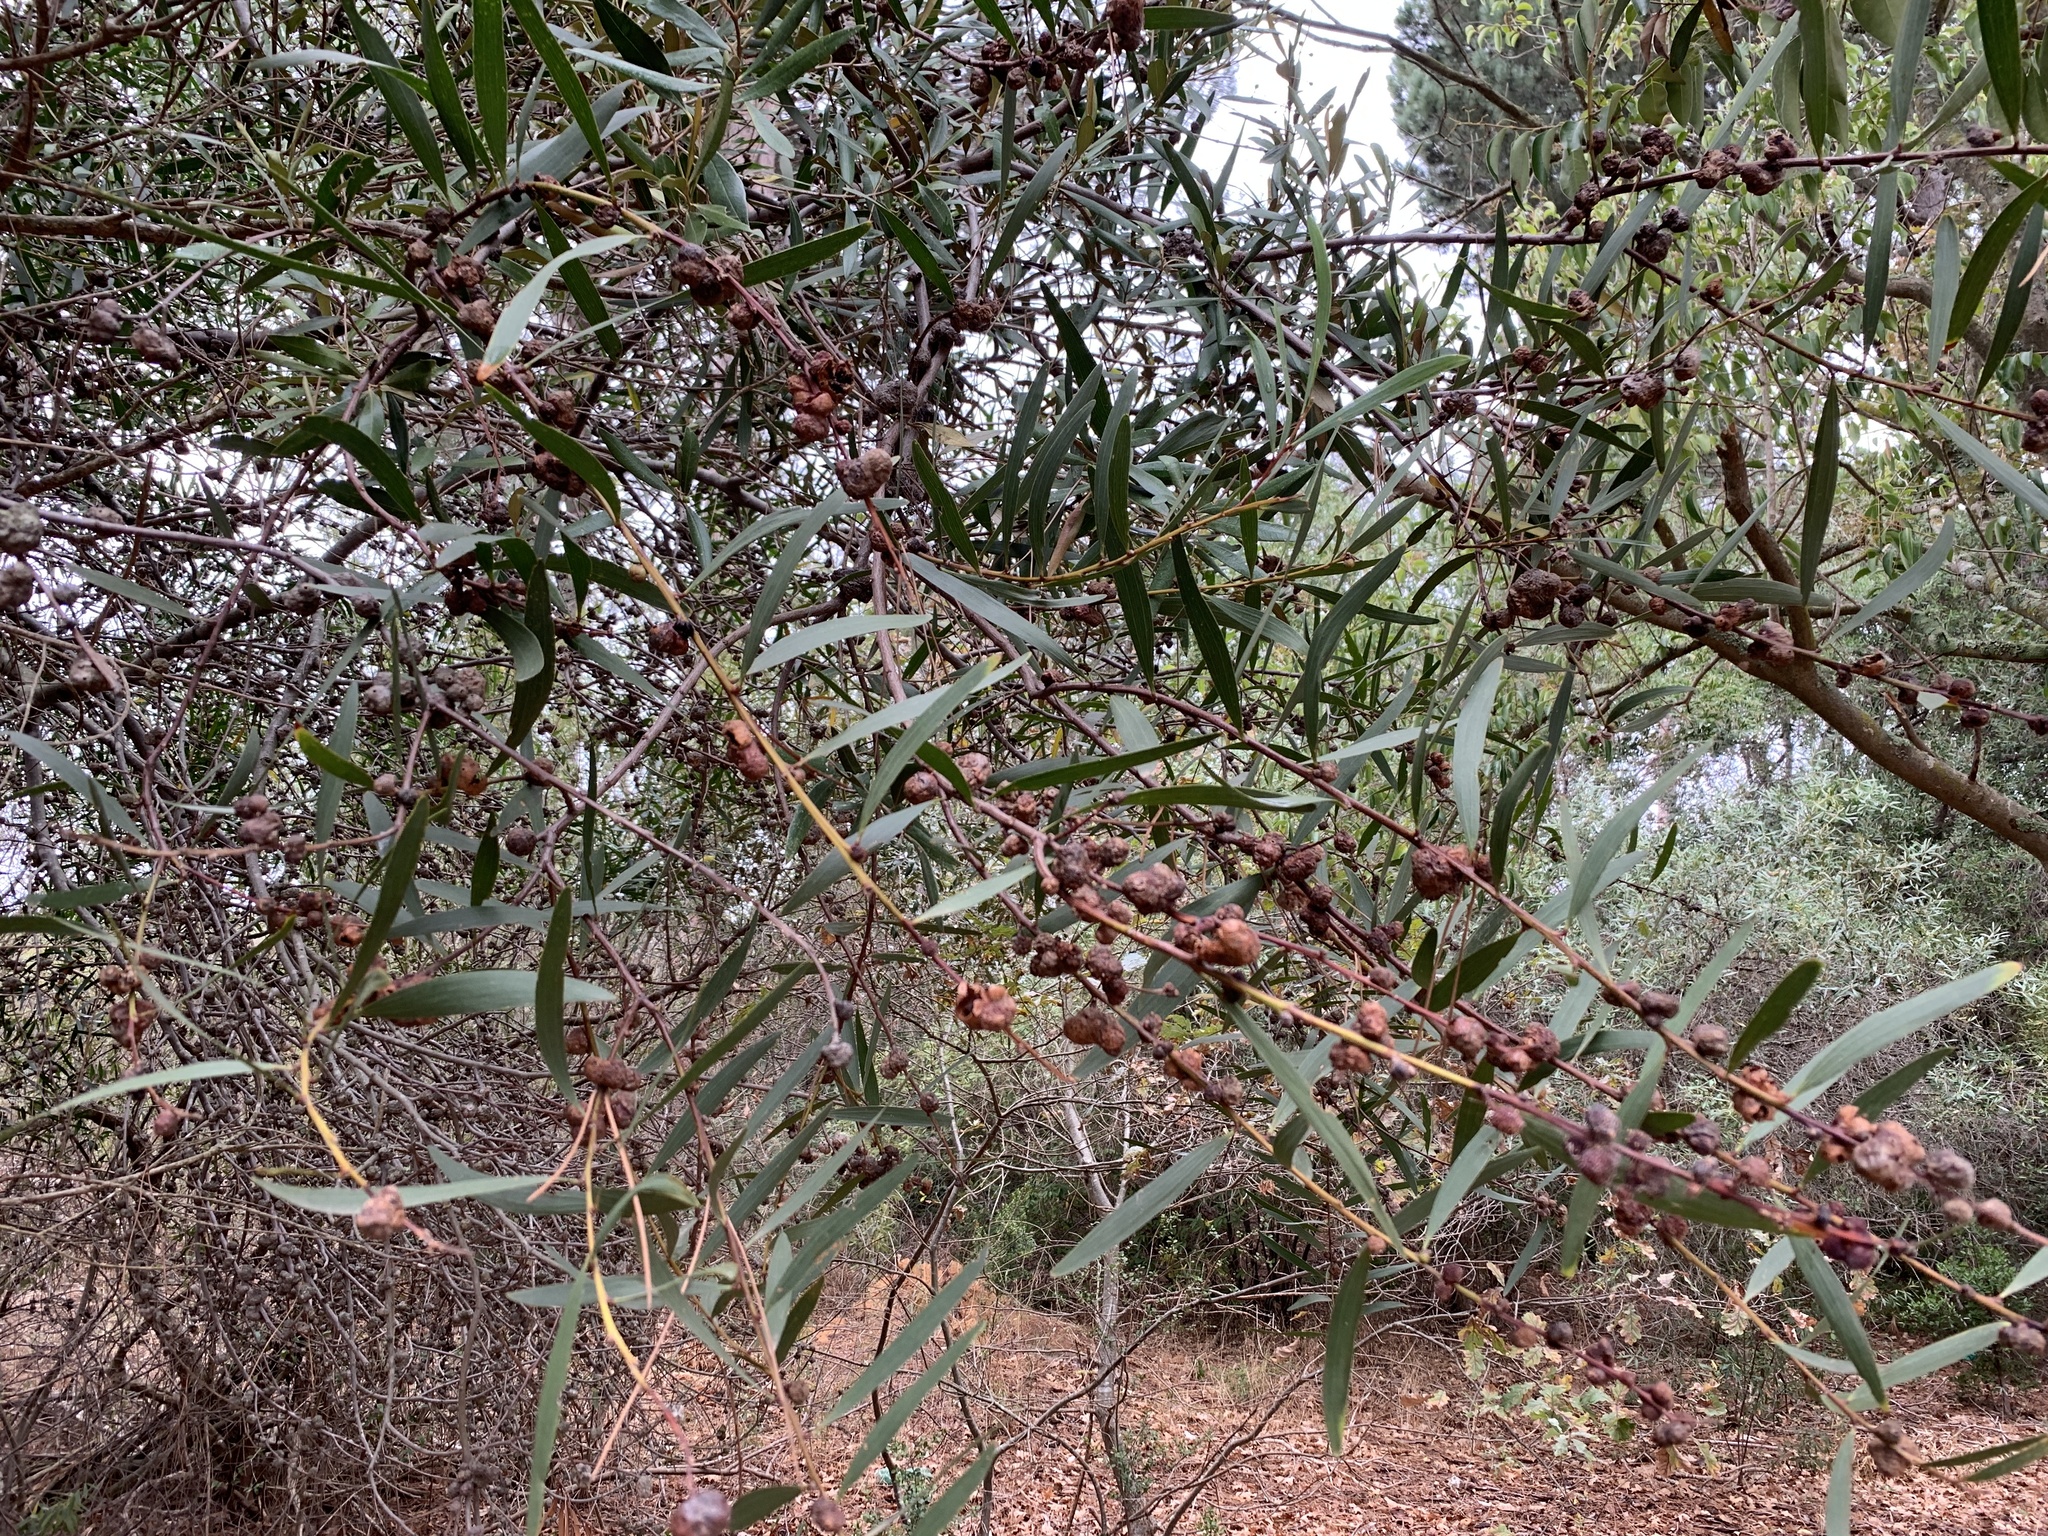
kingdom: Plantae
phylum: Tracheophyta
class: Magnoliopsida
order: Fabales
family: Fabaceae
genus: Acacia
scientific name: Acacia longifolia
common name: Sydney golden wattle
